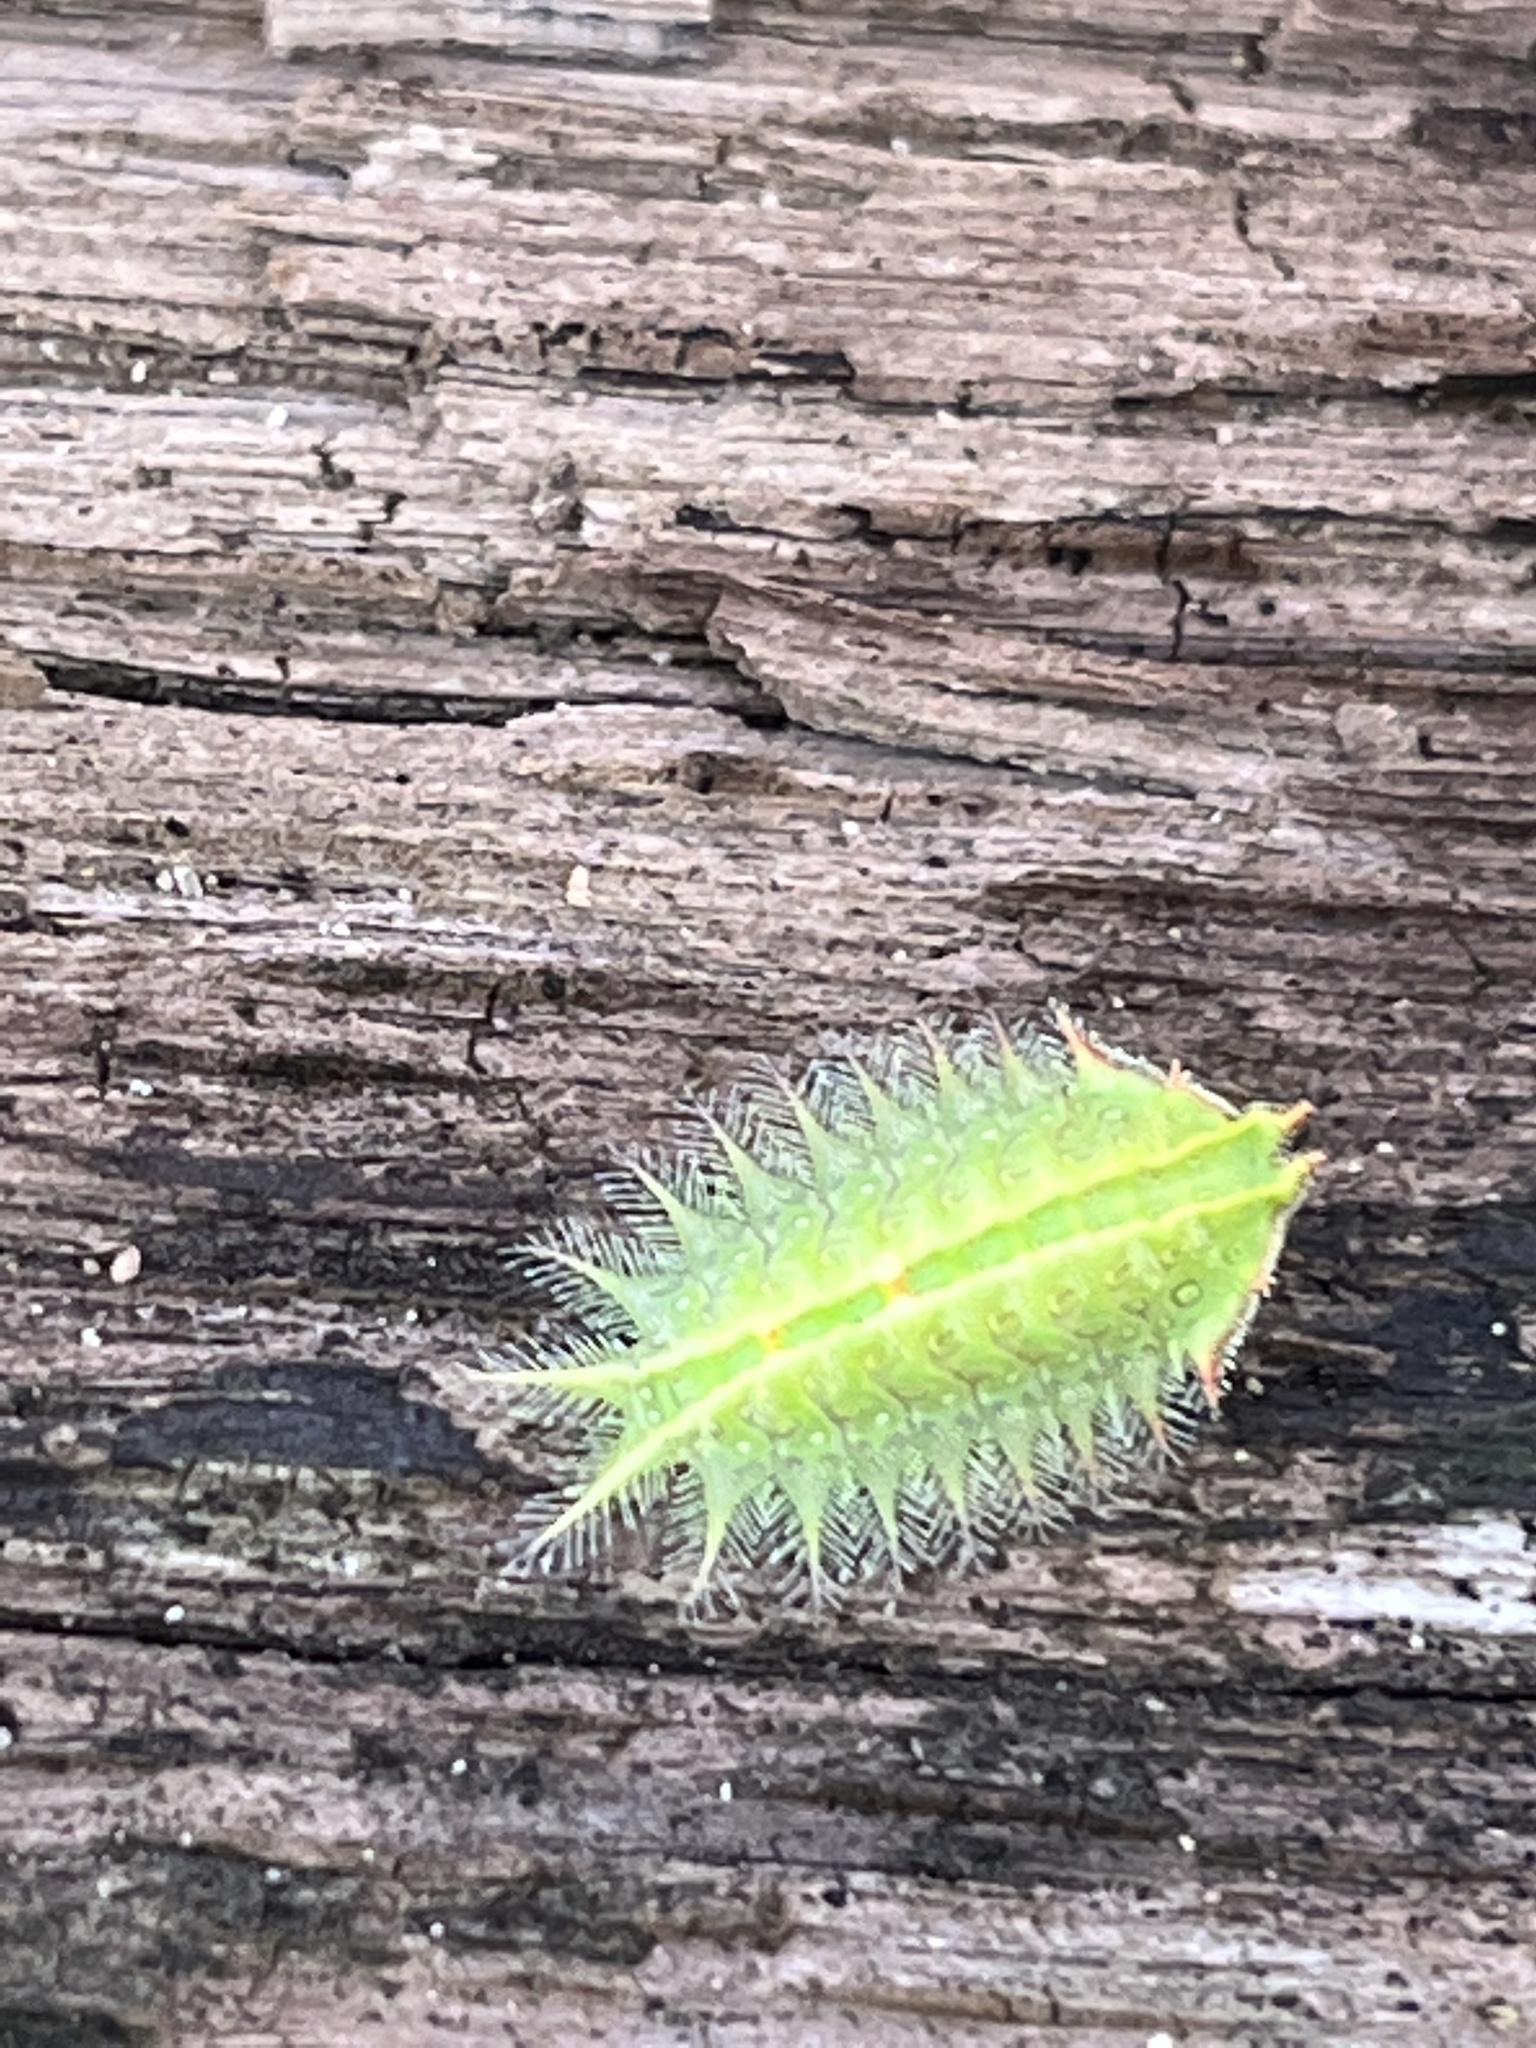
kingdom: Animalia
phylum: Arthropoda
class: Insecta
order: Lepidoptera
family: Limacodidae
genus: Isa
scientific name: Isa textula
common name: Crowned slug moth
